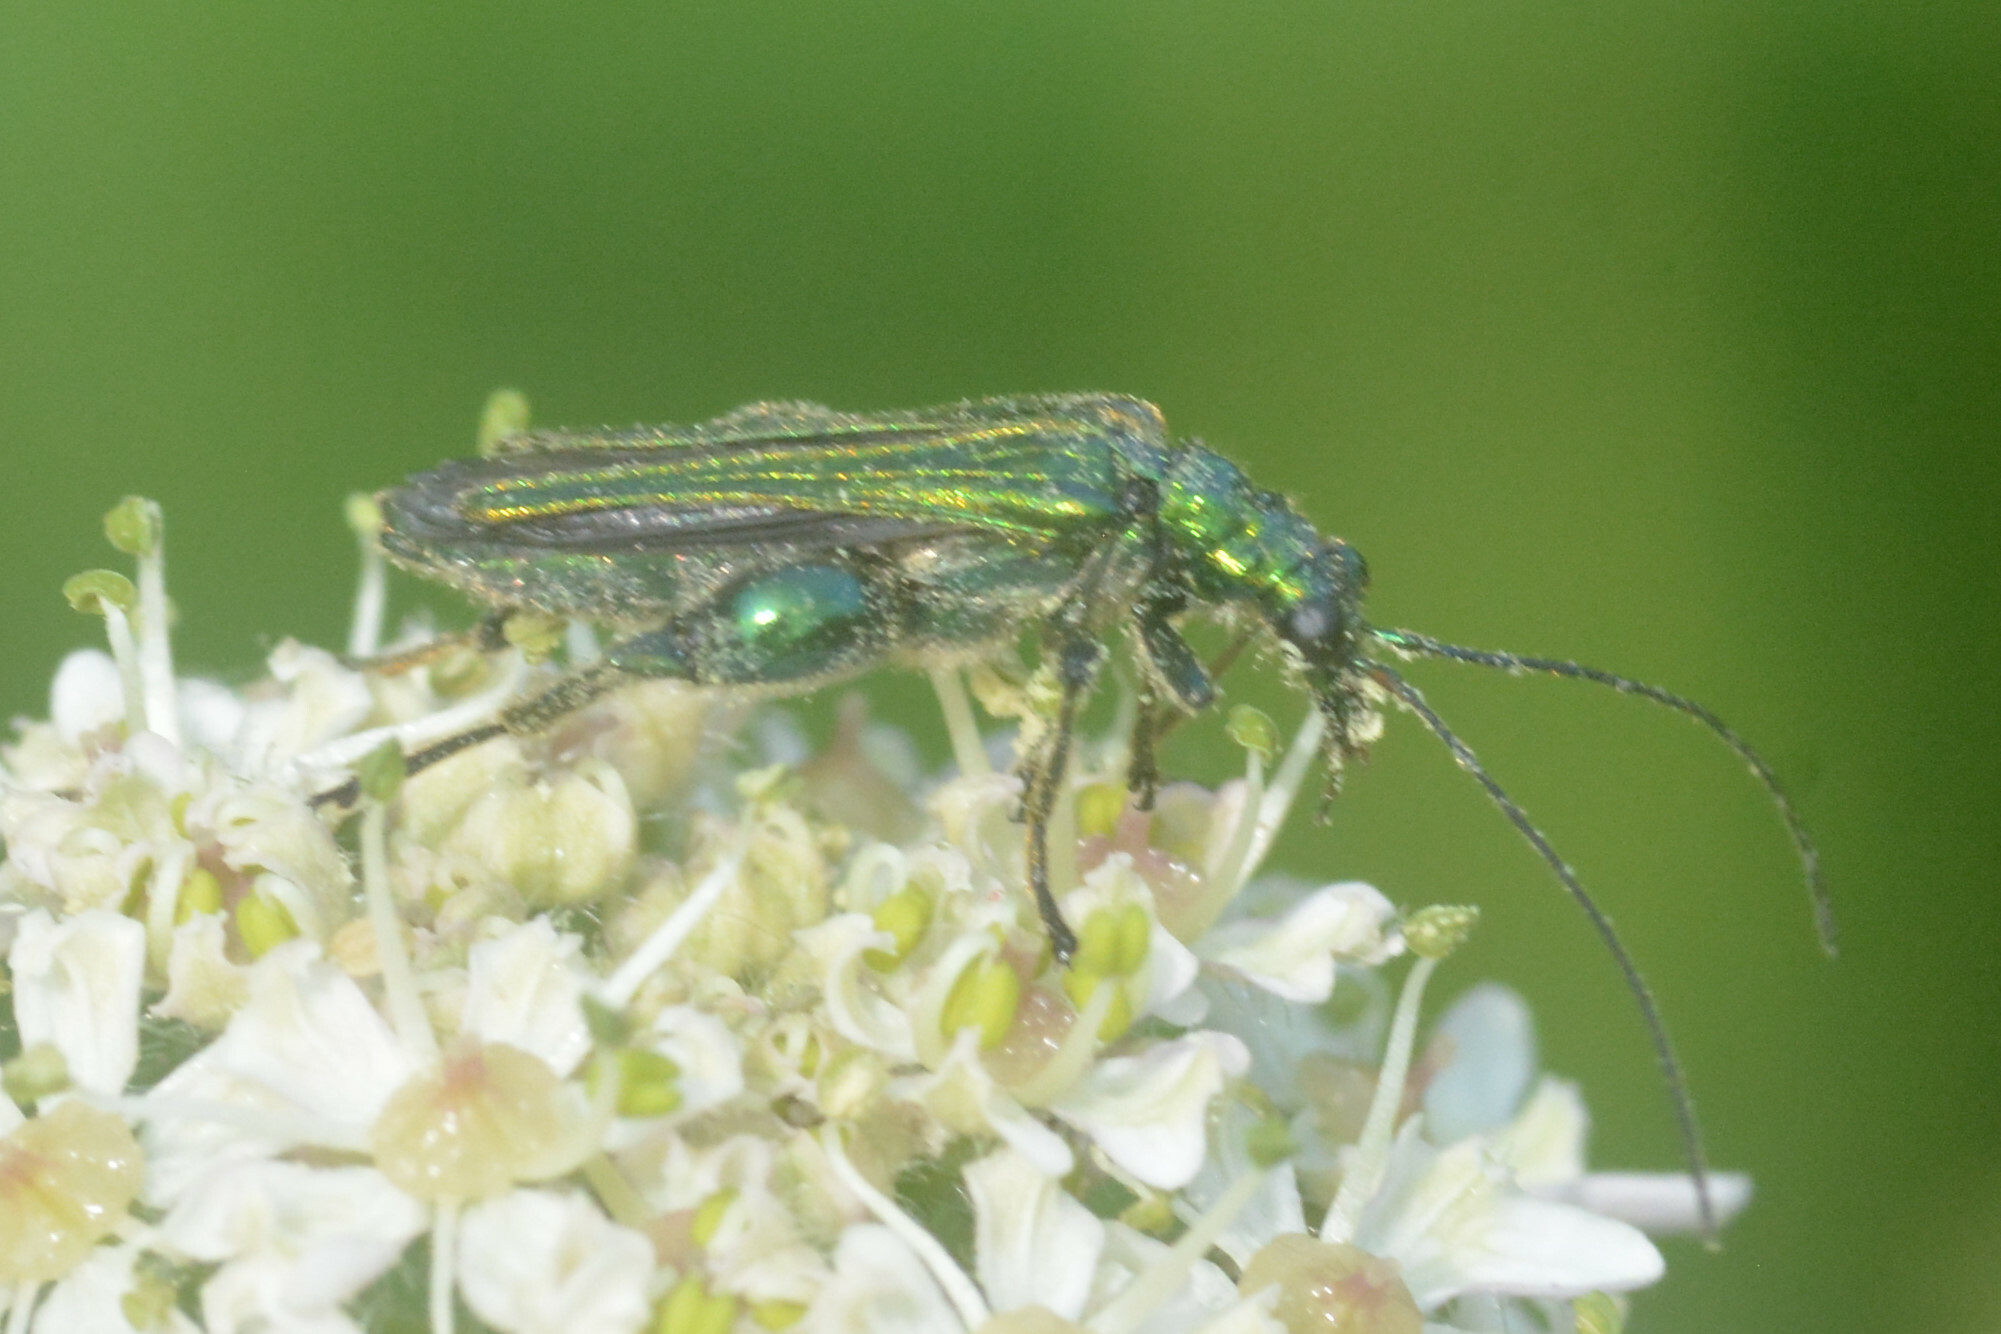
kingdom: Animalia
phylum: Arthropoda
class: Insecta
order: Coleoptera
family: Oedemeridae
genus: Oedemera
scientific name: Oedemera nobilis
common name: Swollen-thighed beetle
